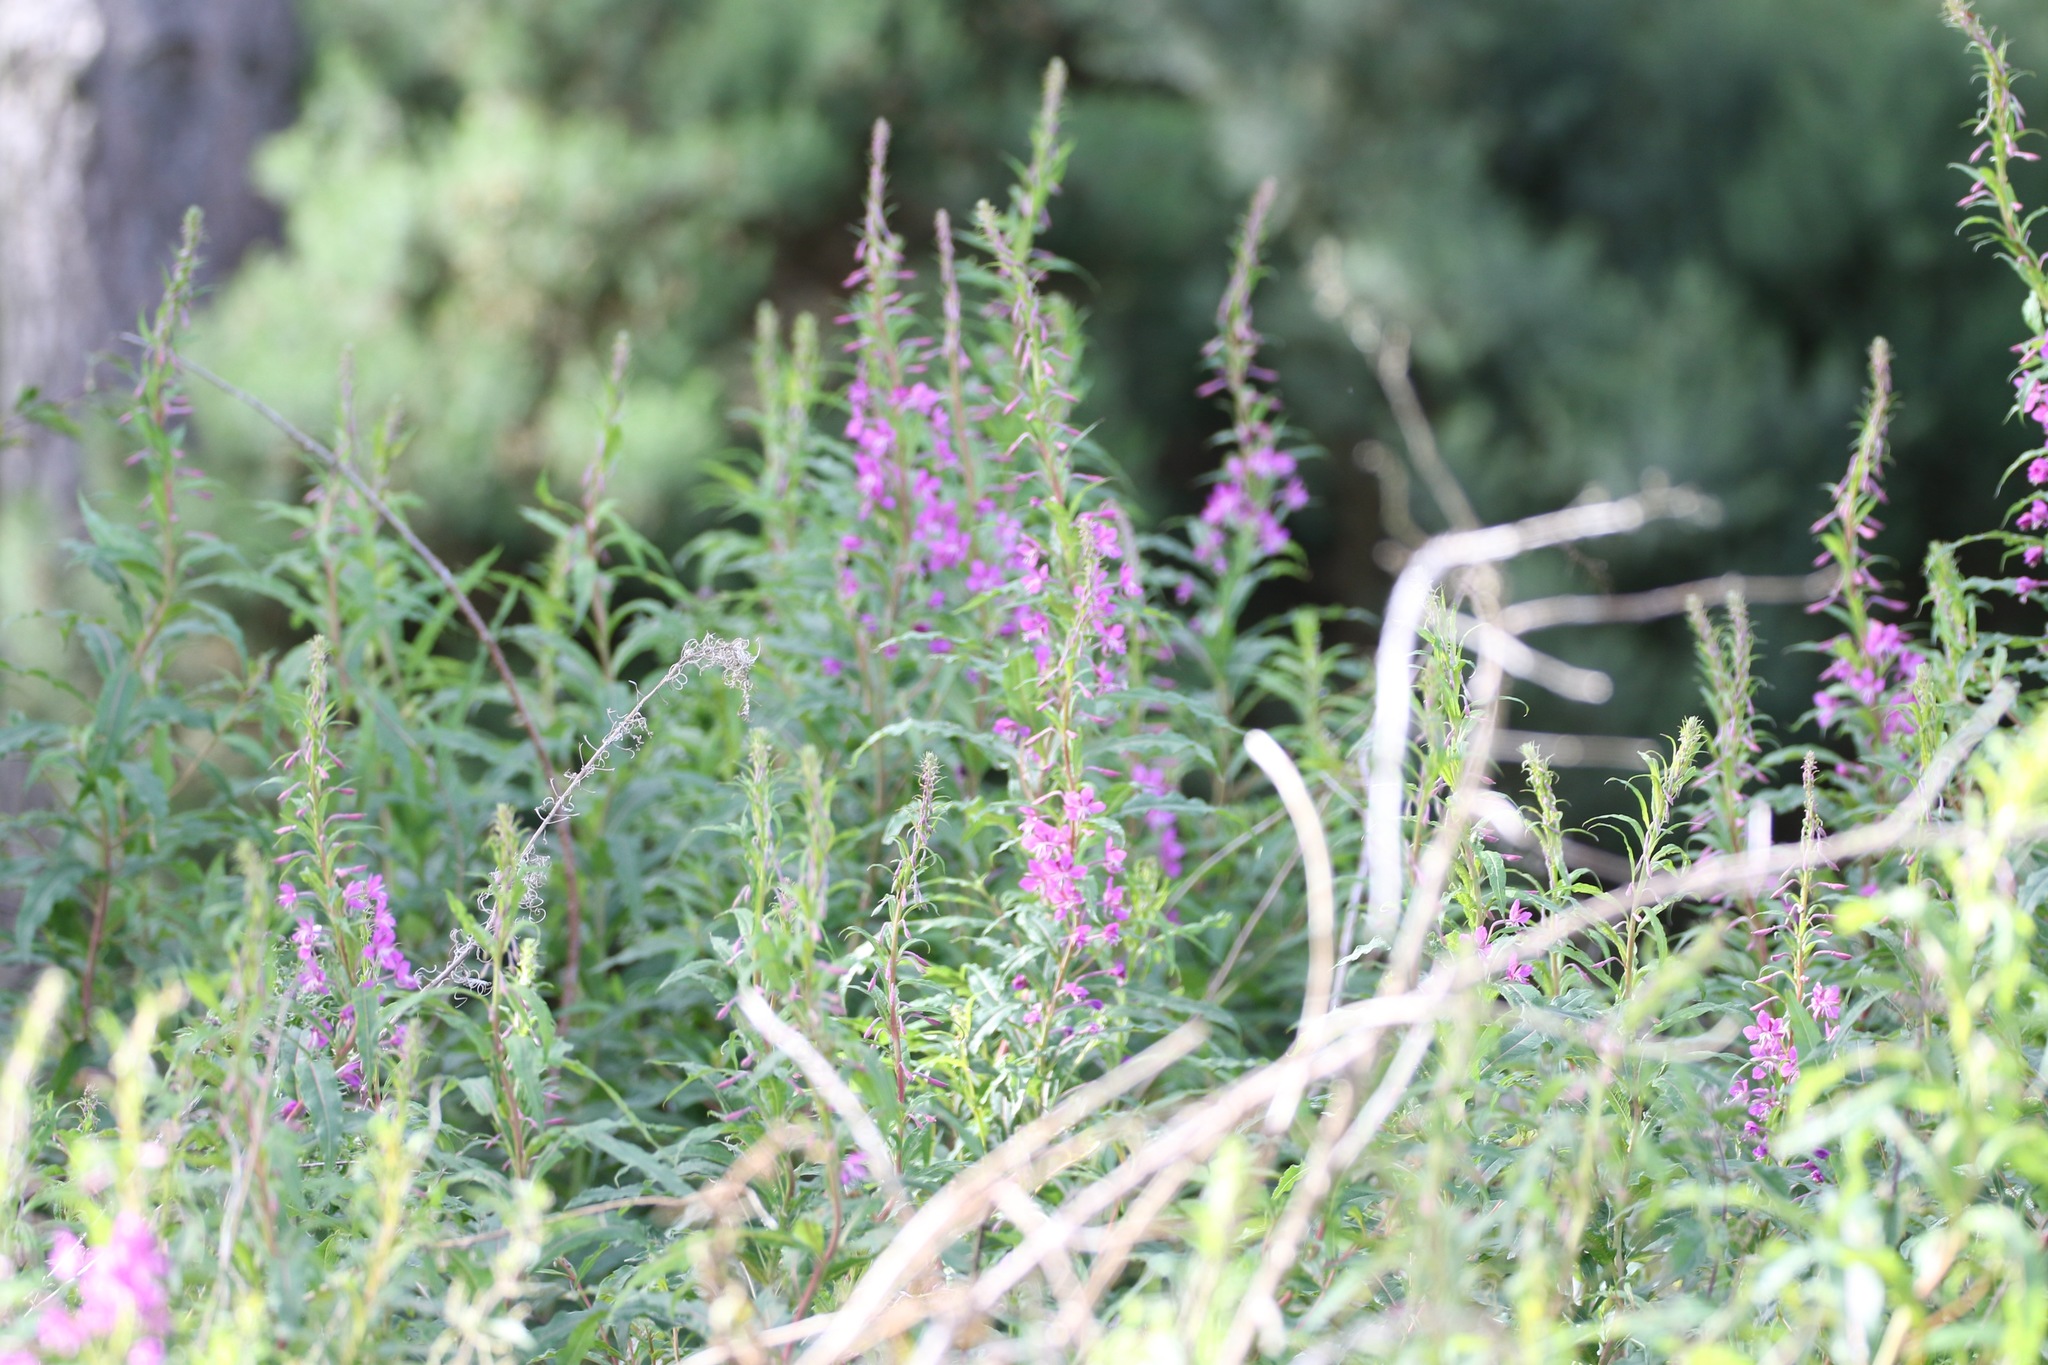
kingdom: Plantae
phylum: Tracheophyta
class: Magnoliopsida
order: Myrtales
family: Onagraceae
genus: Chamaenerion
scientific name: Chamaenerion angustifolium
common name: Fireweed
